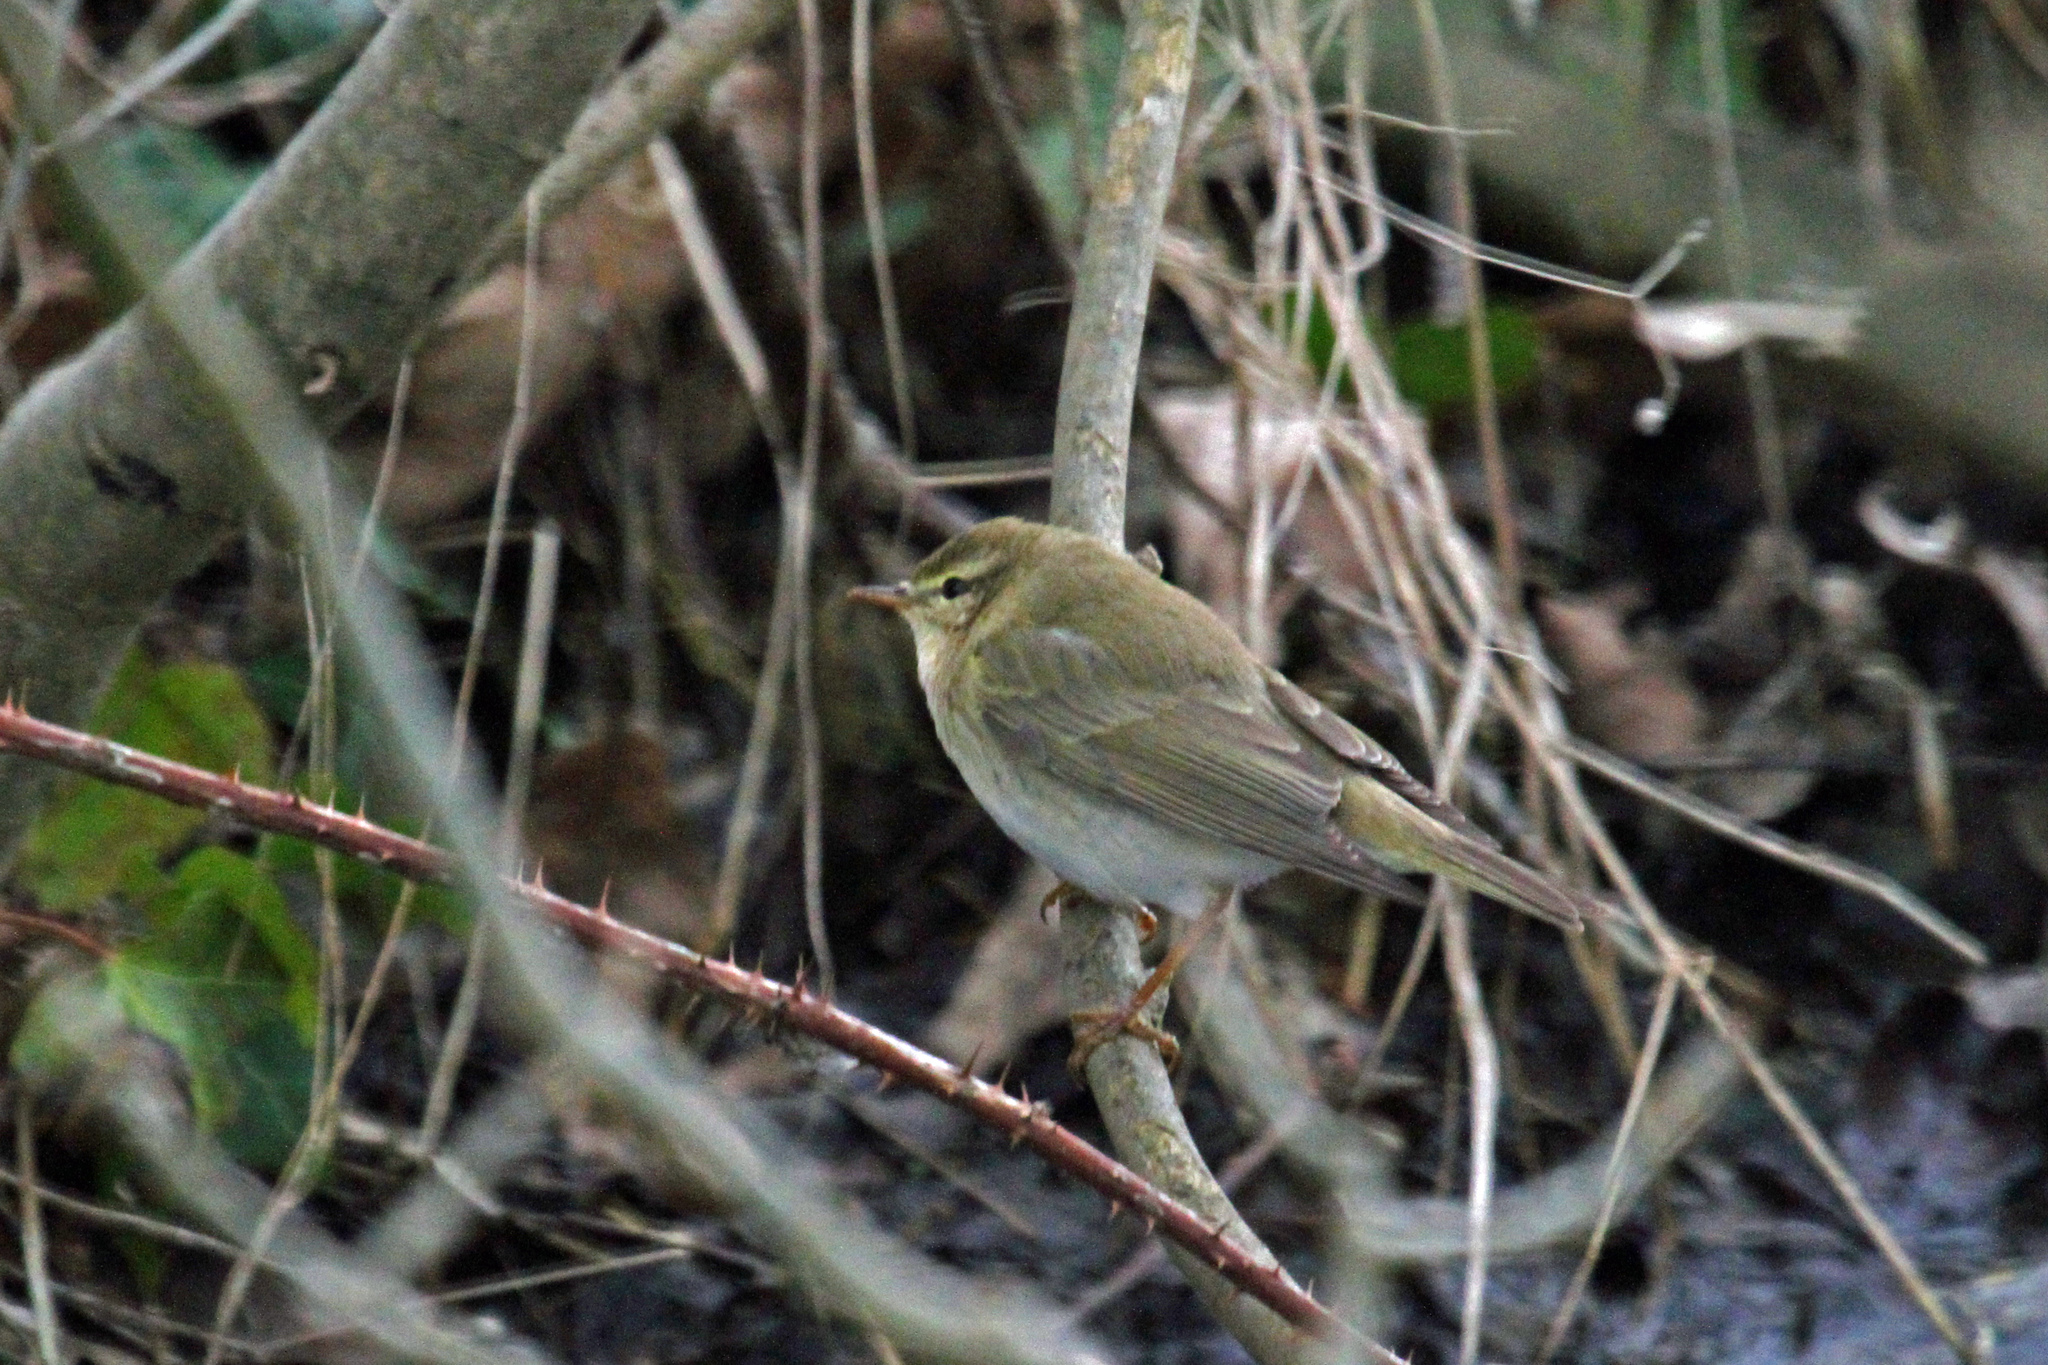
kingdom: Animalia
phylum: Chordata
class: Aves
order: Passeriformes
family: Phylloscopidae
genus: Phylloscopus
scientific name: Phylloscopus trochilus
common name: Willow warbler
